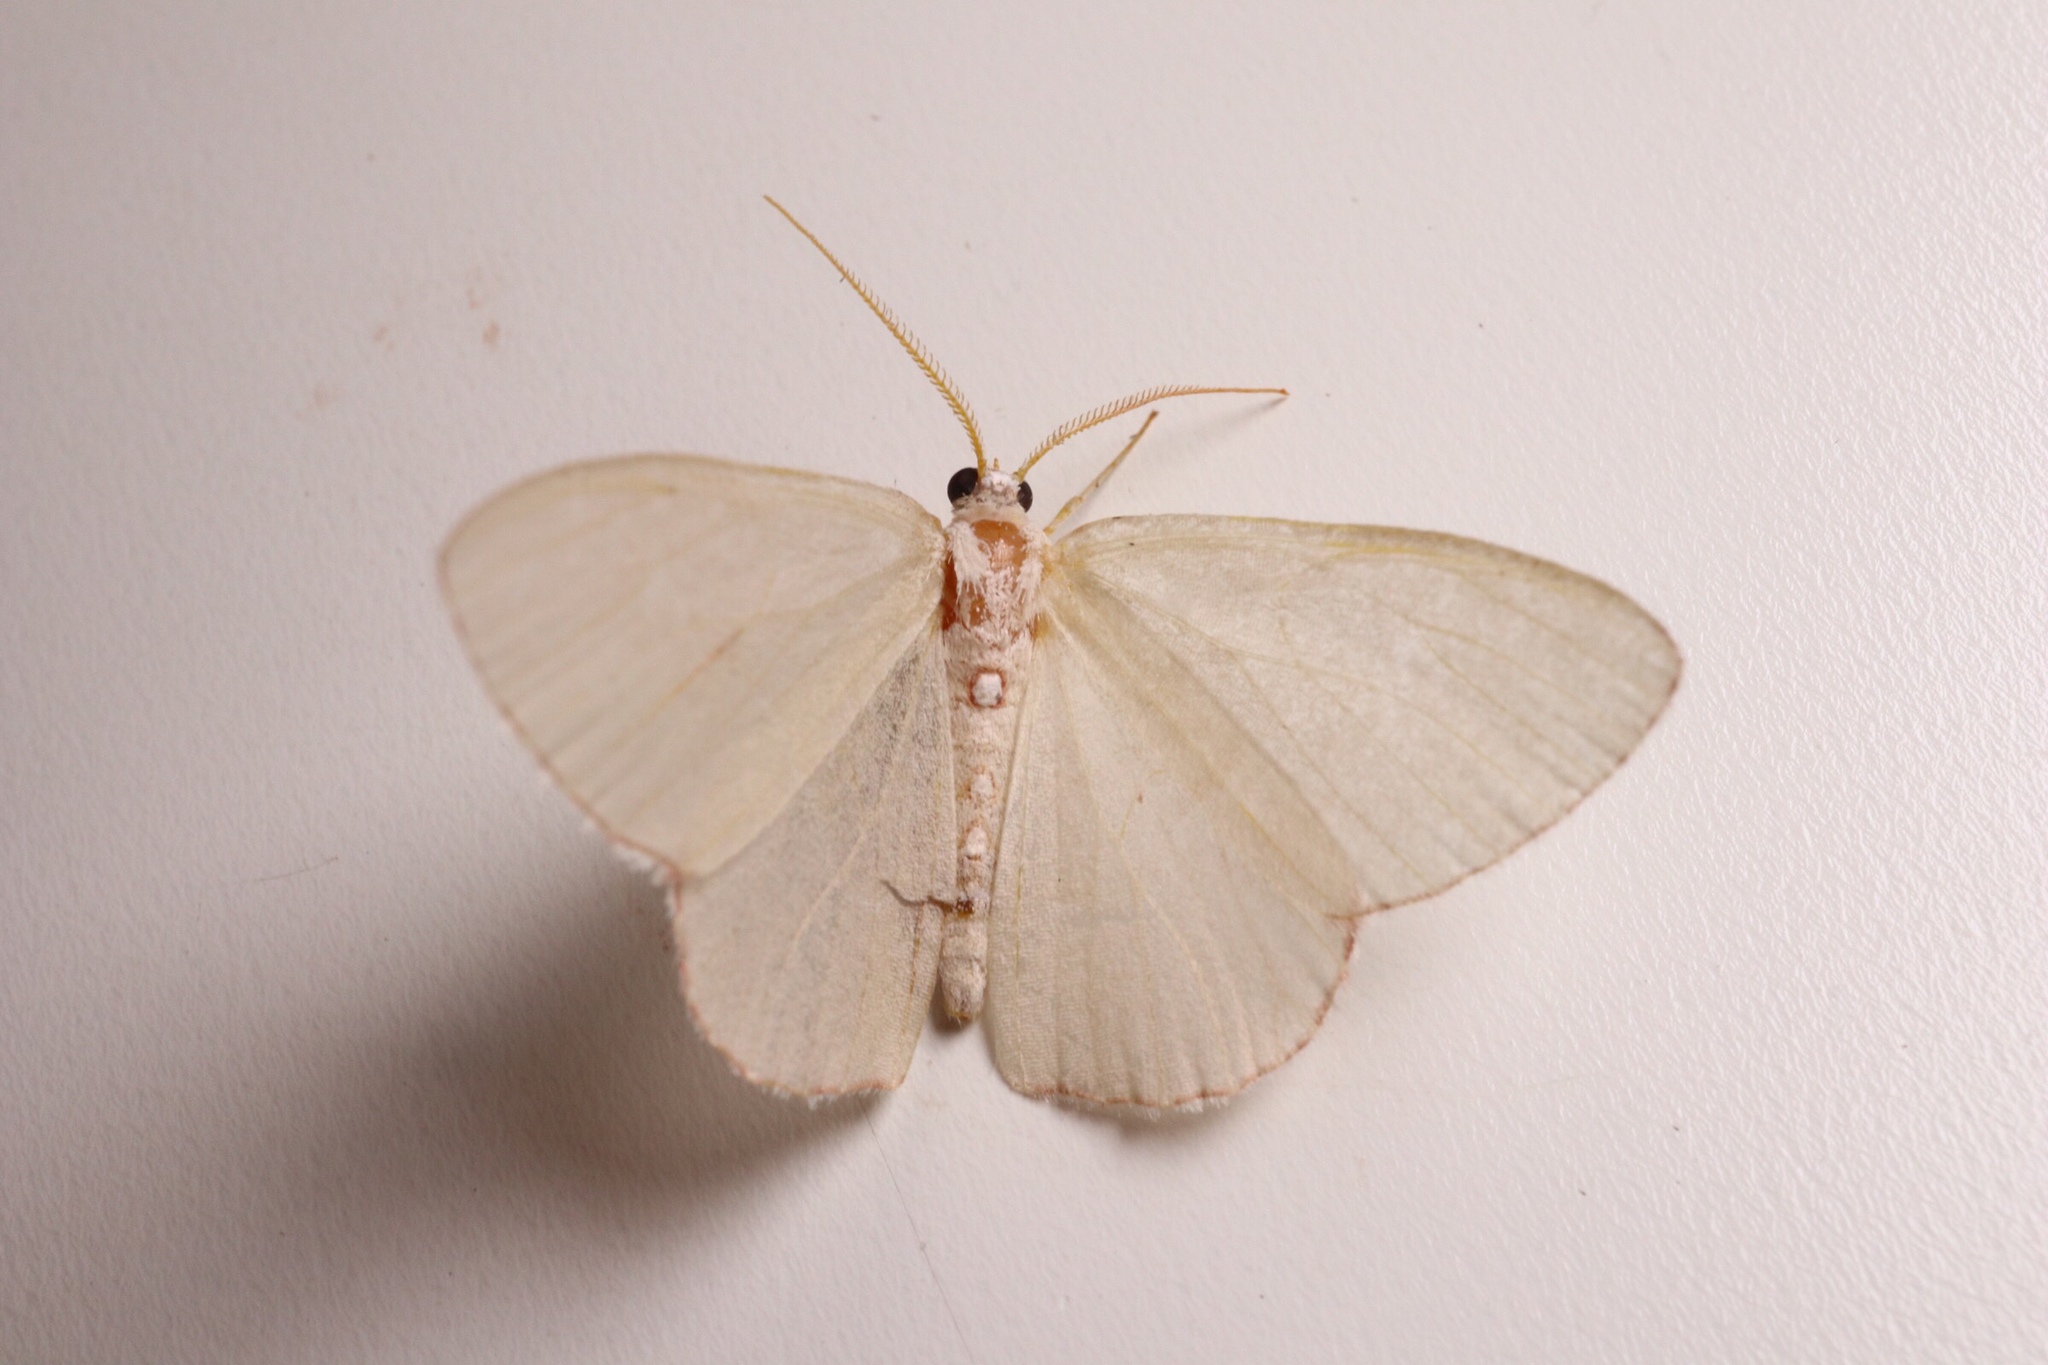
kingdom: Animalia
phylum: Arthropoda
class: Insecta
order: Lepidoptera
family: Geometridae
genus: Nemoria
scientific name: Nemoria lixaria
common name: Red-bordered emerald
